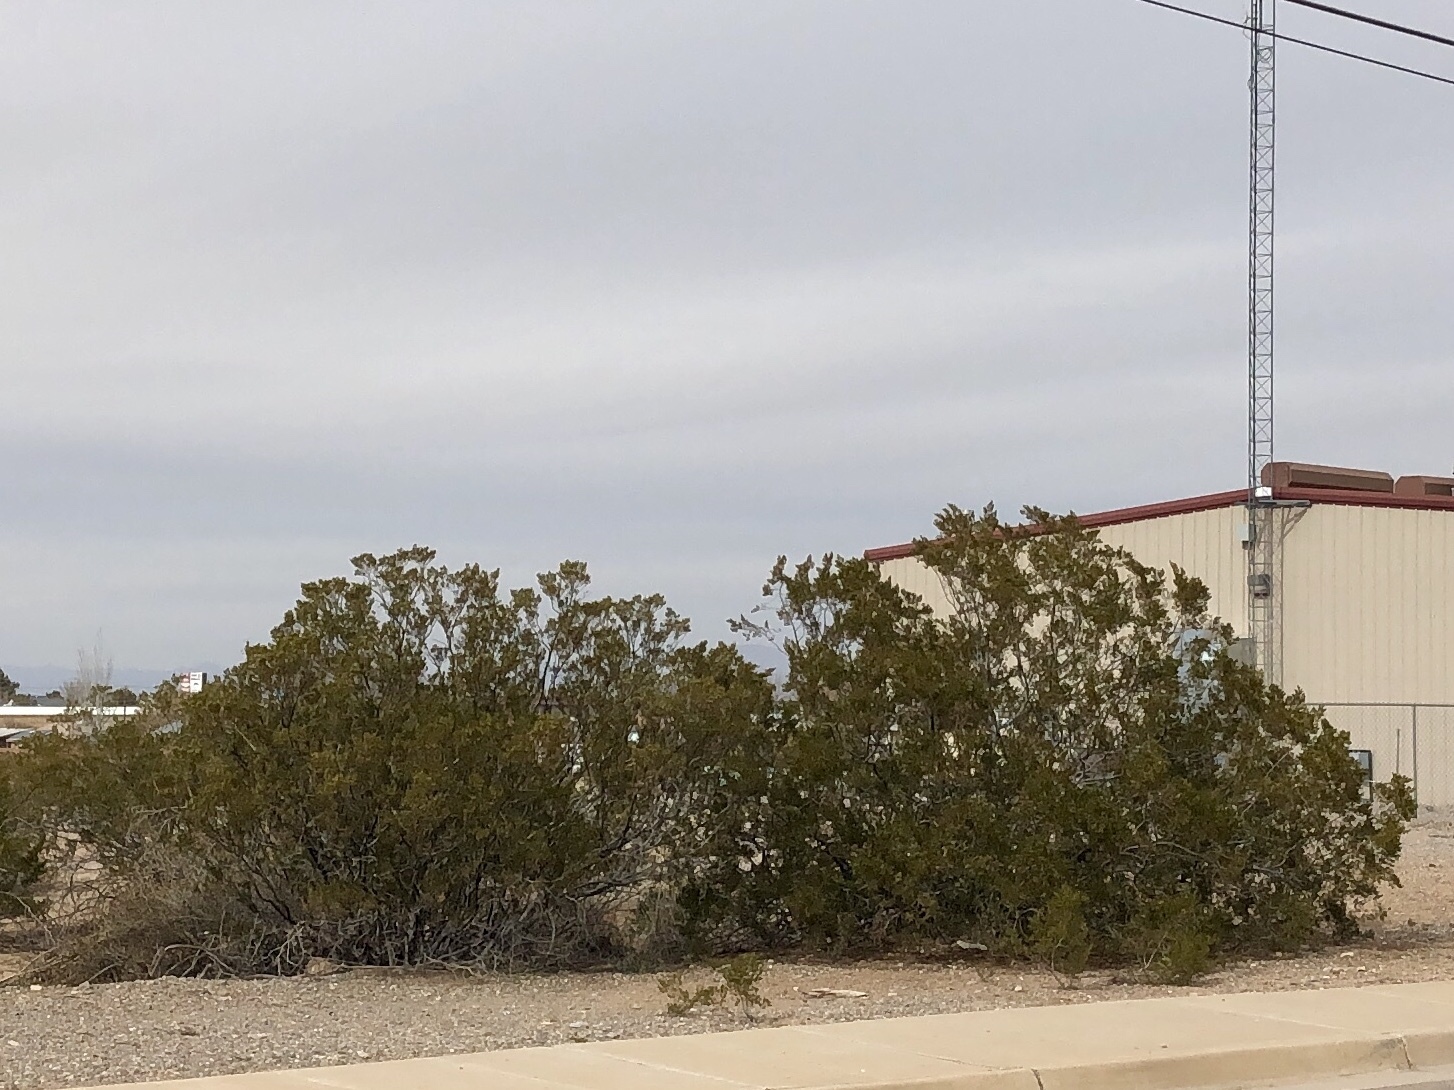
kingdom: Plantae
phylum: Tracheophyta
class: Magnoliopsida
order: Zygophyllales
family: Zygophyllaceae
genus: Larrea
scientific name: Larrea tridentata
